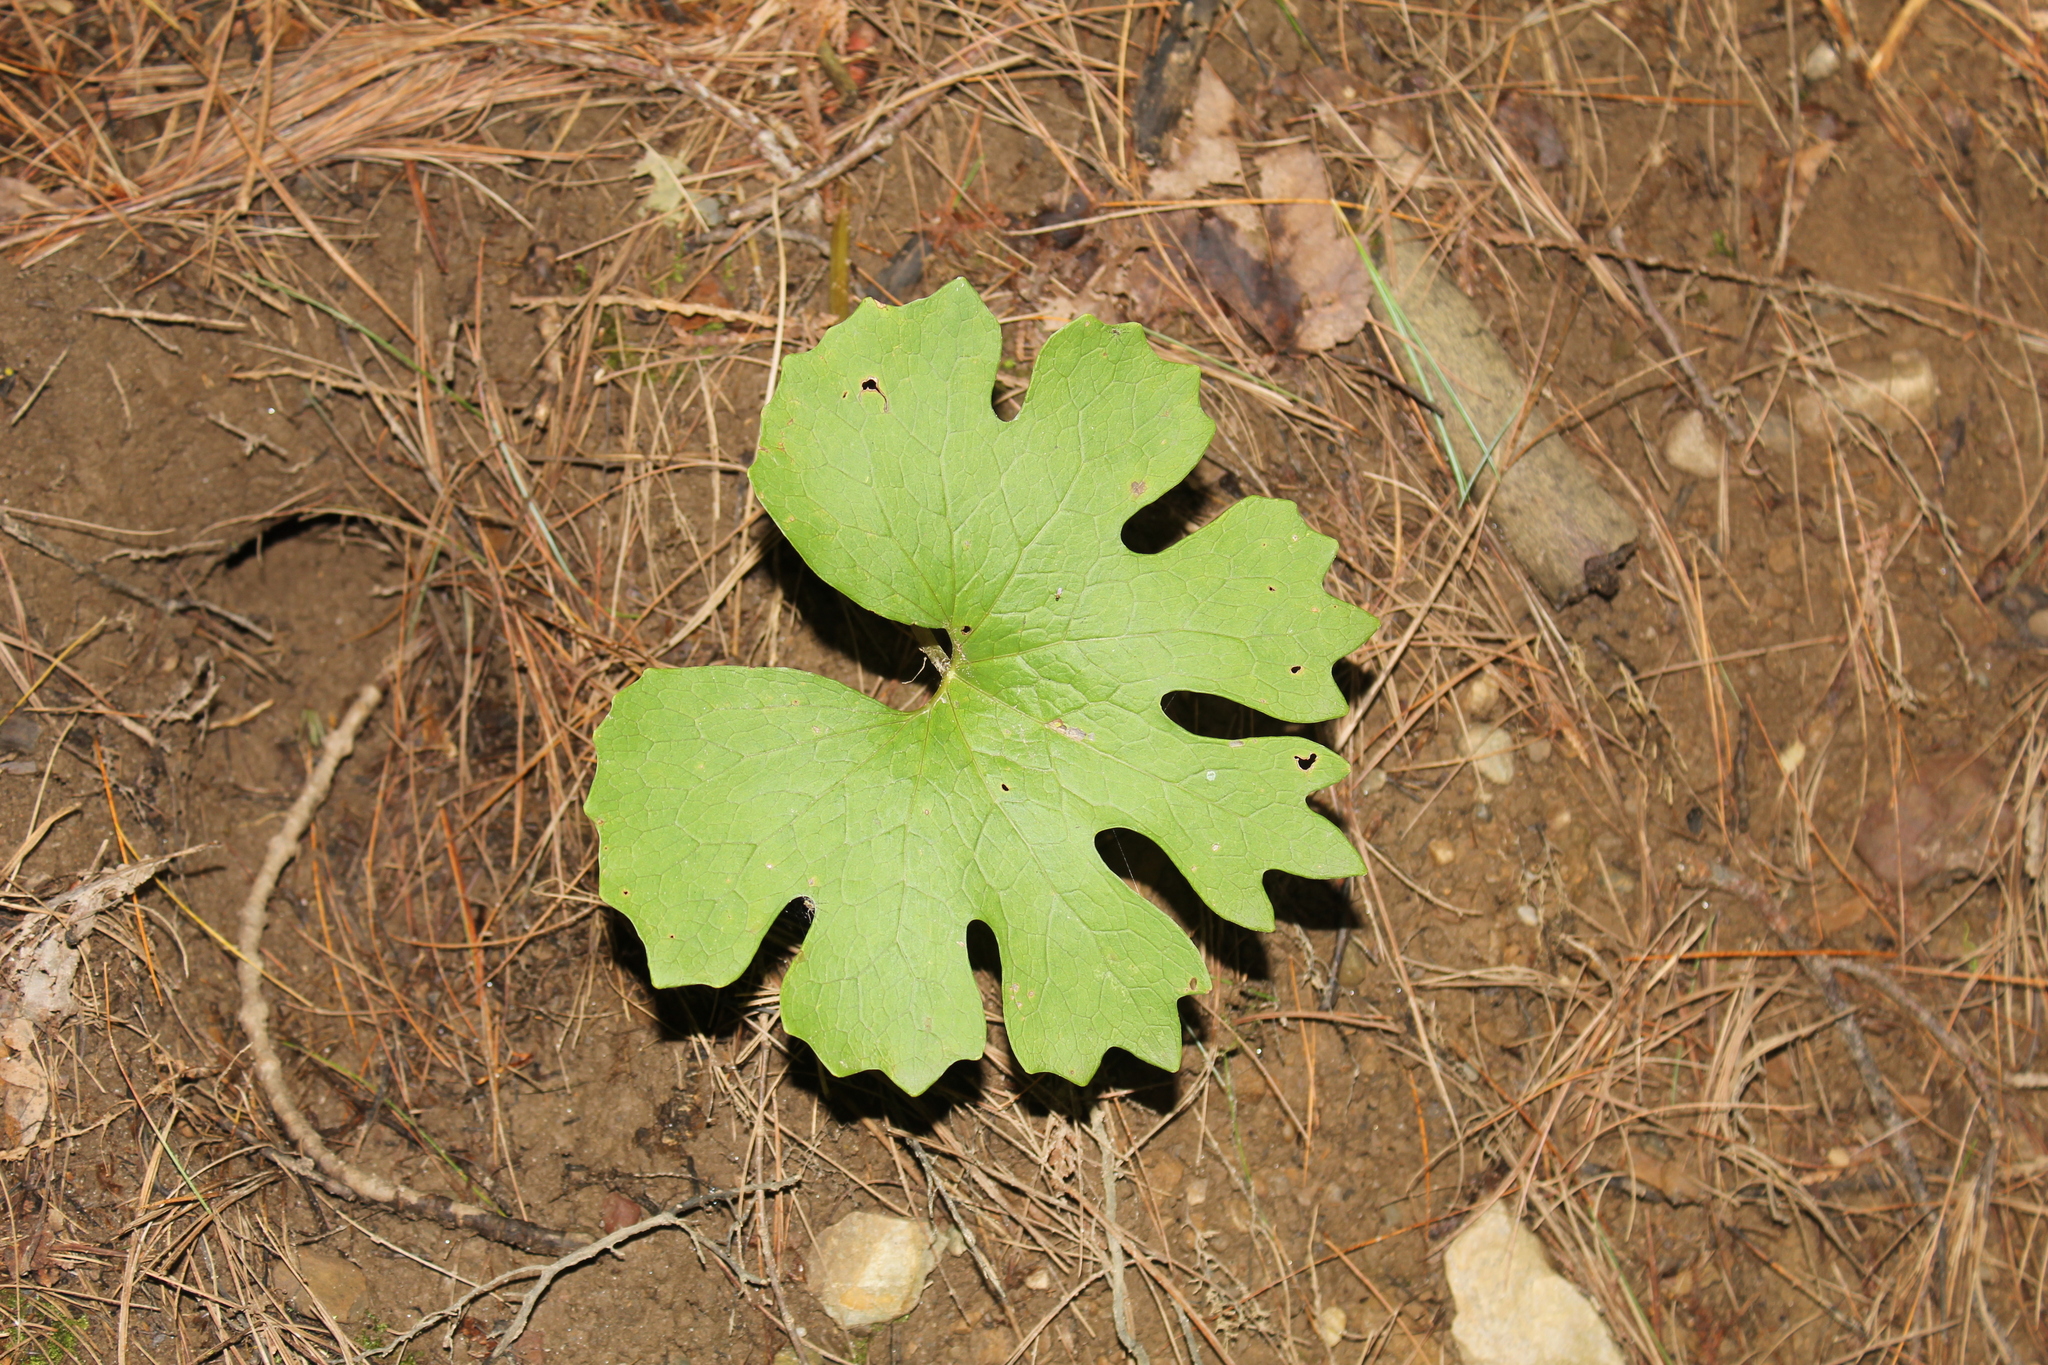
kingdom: Plantae
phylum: Tracheophyta
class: Magnoliopsida
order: Ranunculales
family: Papaveraceae
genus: Sanguinaria
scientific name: Sanguinaria canadensis
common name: Bloodroot
